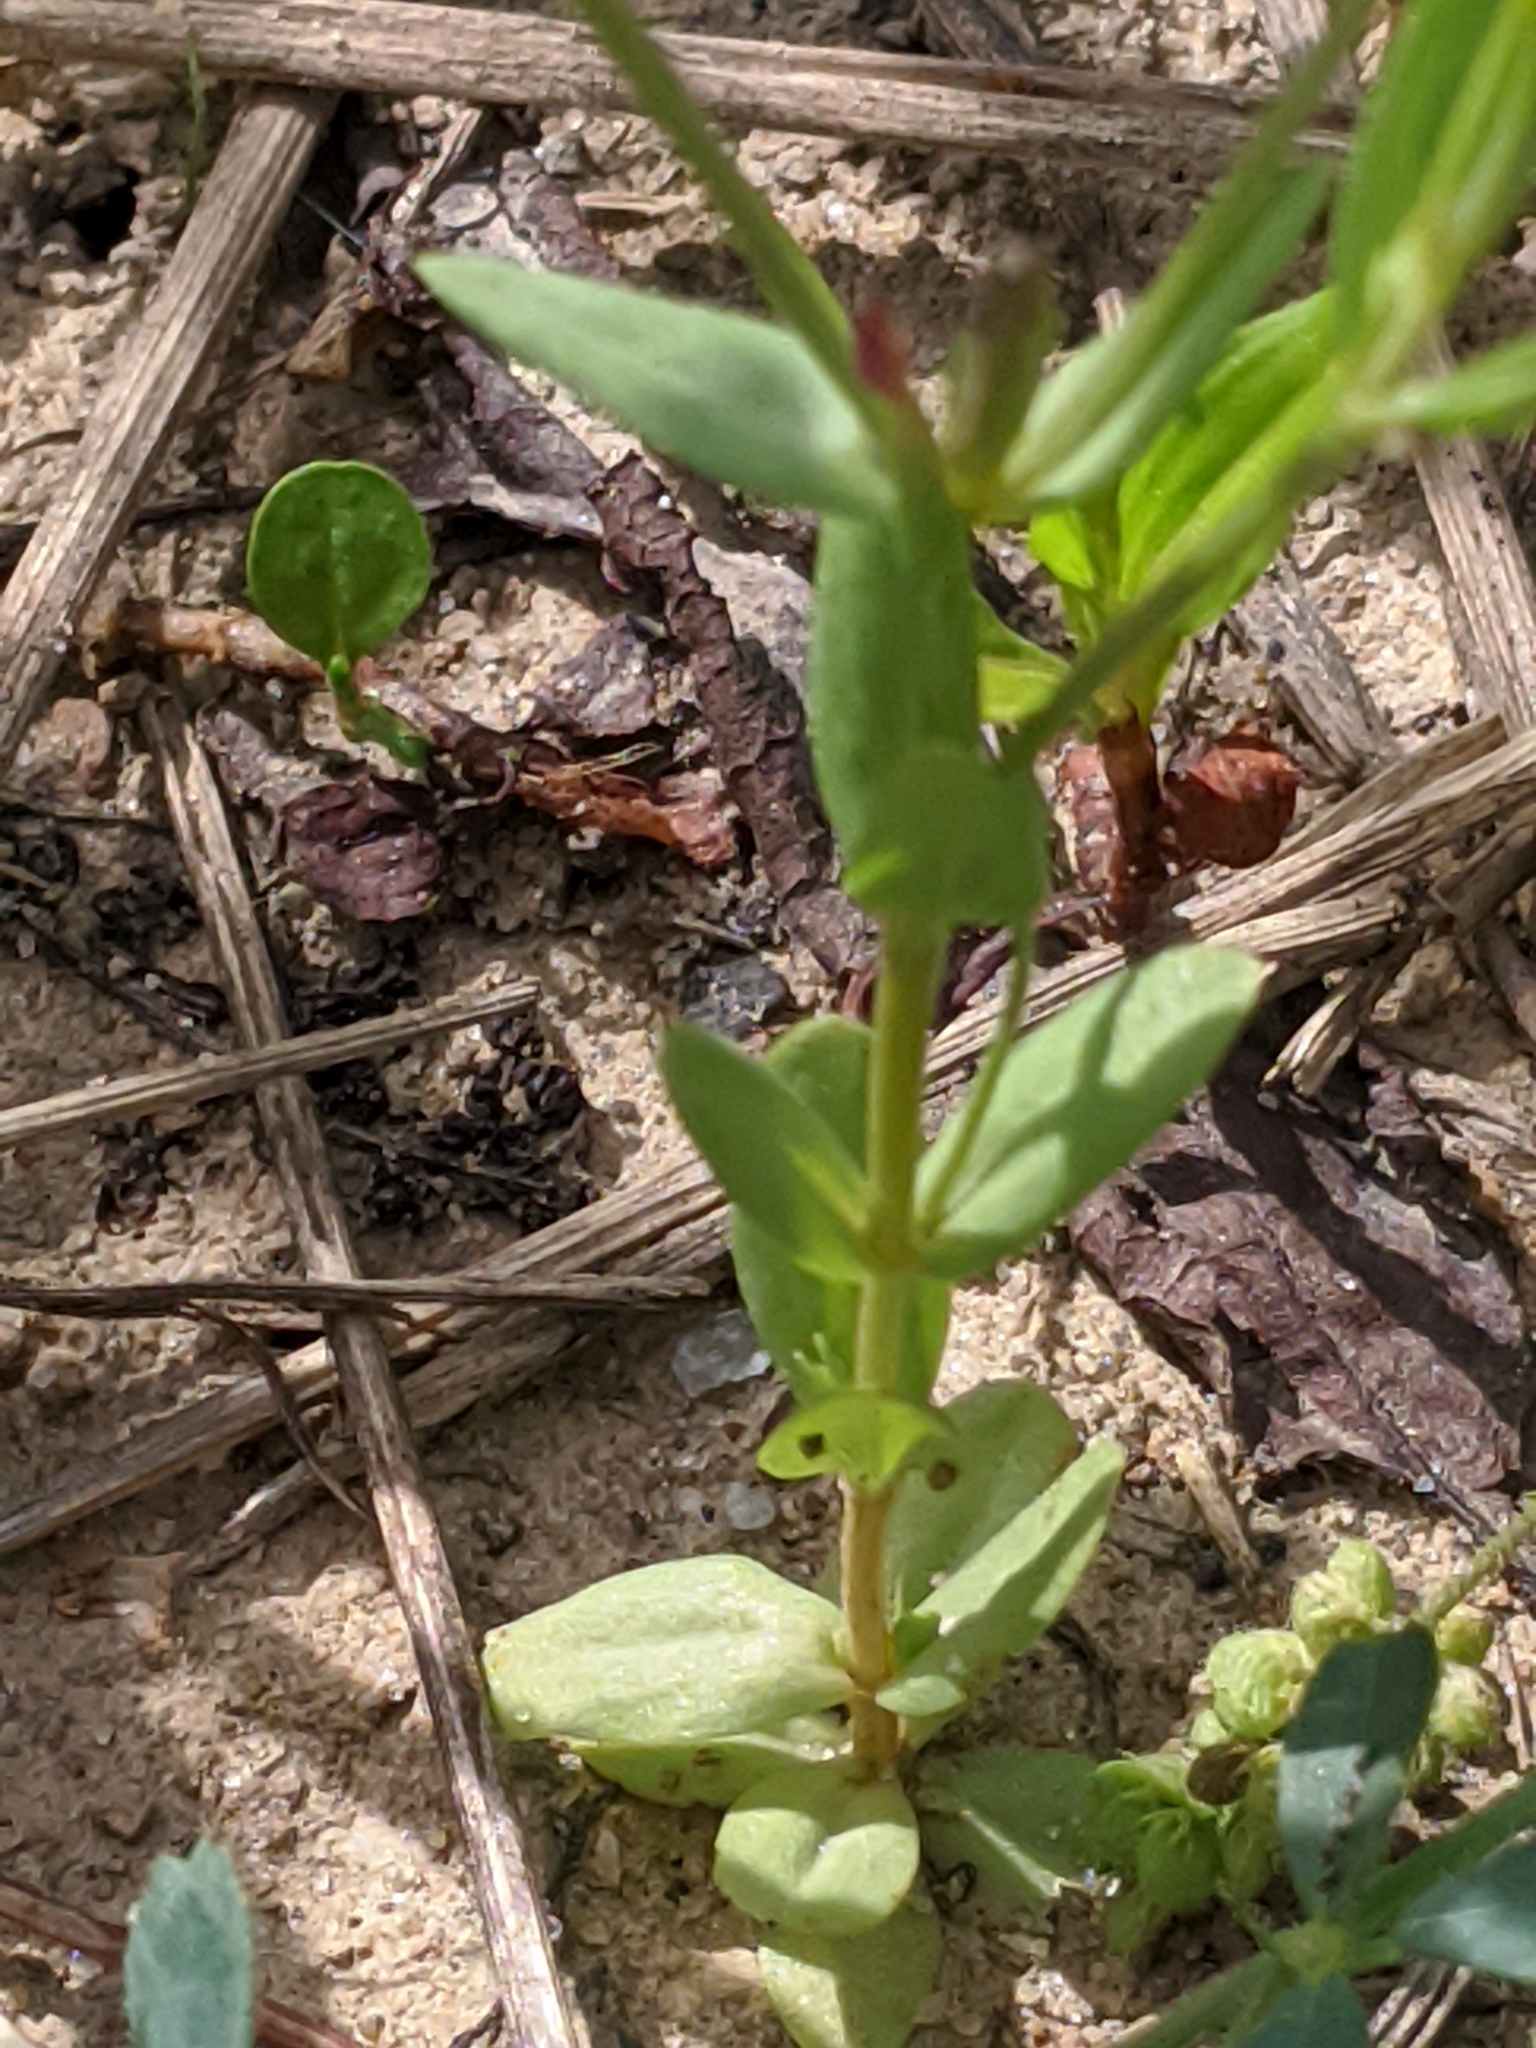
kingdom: Plantae
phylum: Tracheophyta
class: Magnoliopsida
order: Gentianales
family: Gentianaceae
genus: Centaurium
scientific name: Centaurium pulchellum
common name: Lesser centaury
